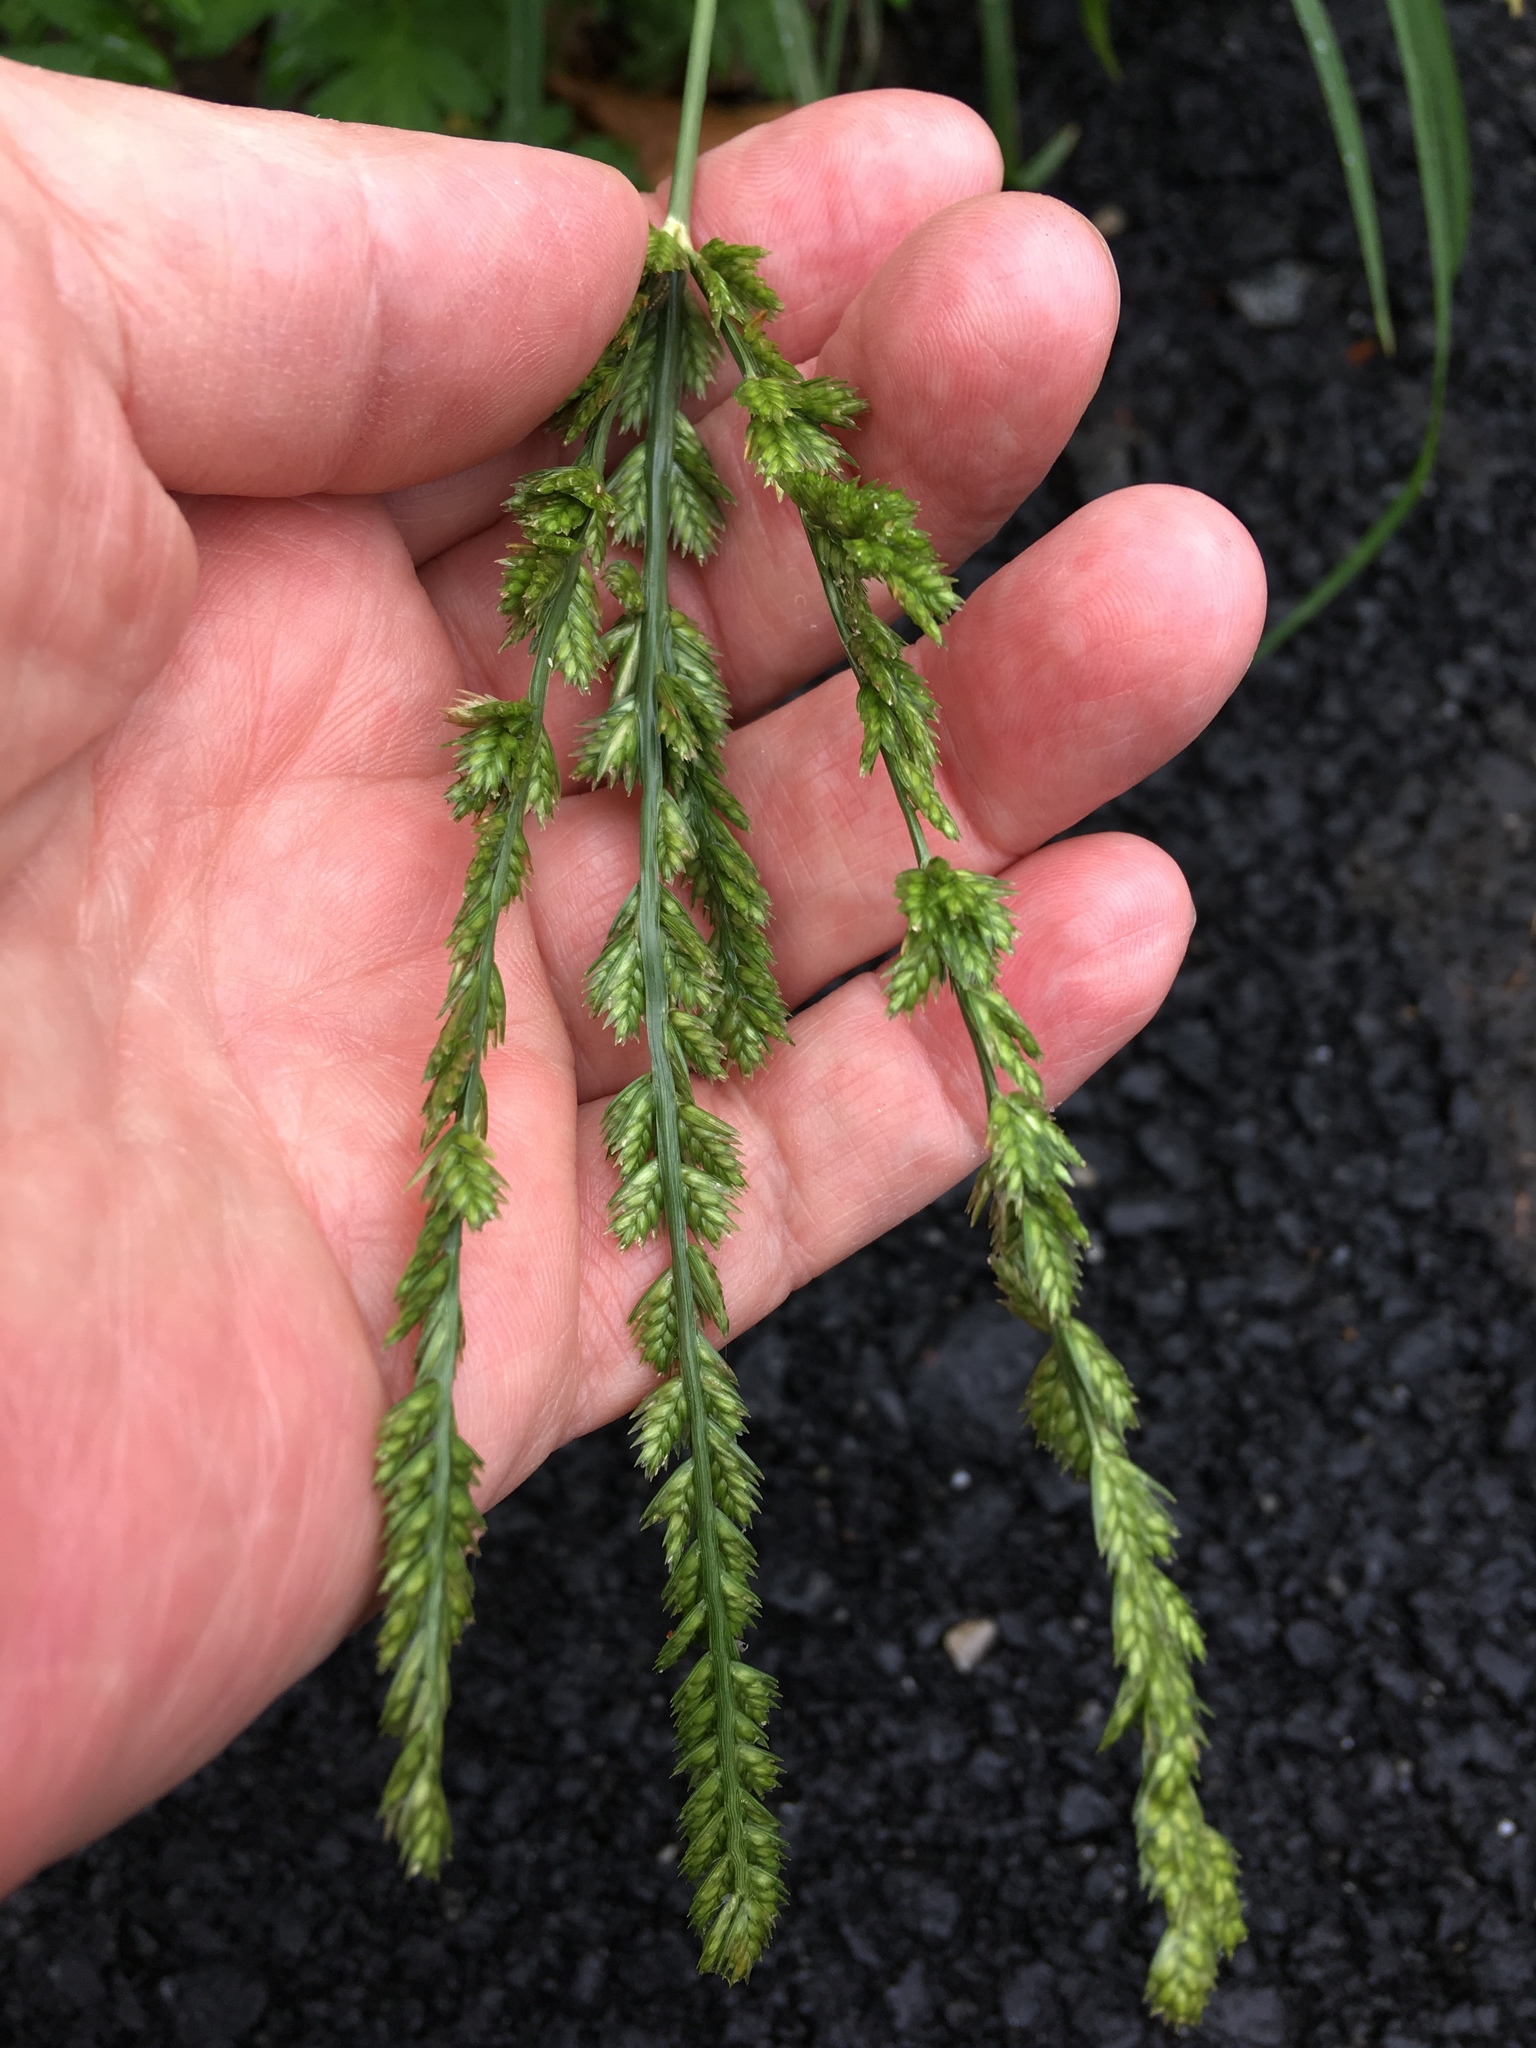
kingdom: Plantae
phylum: Tracheophyta
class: Liliopsida
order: Poales
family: Poaceae
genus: Eleusine
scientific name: Eleusine indica
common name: Yard-grass
